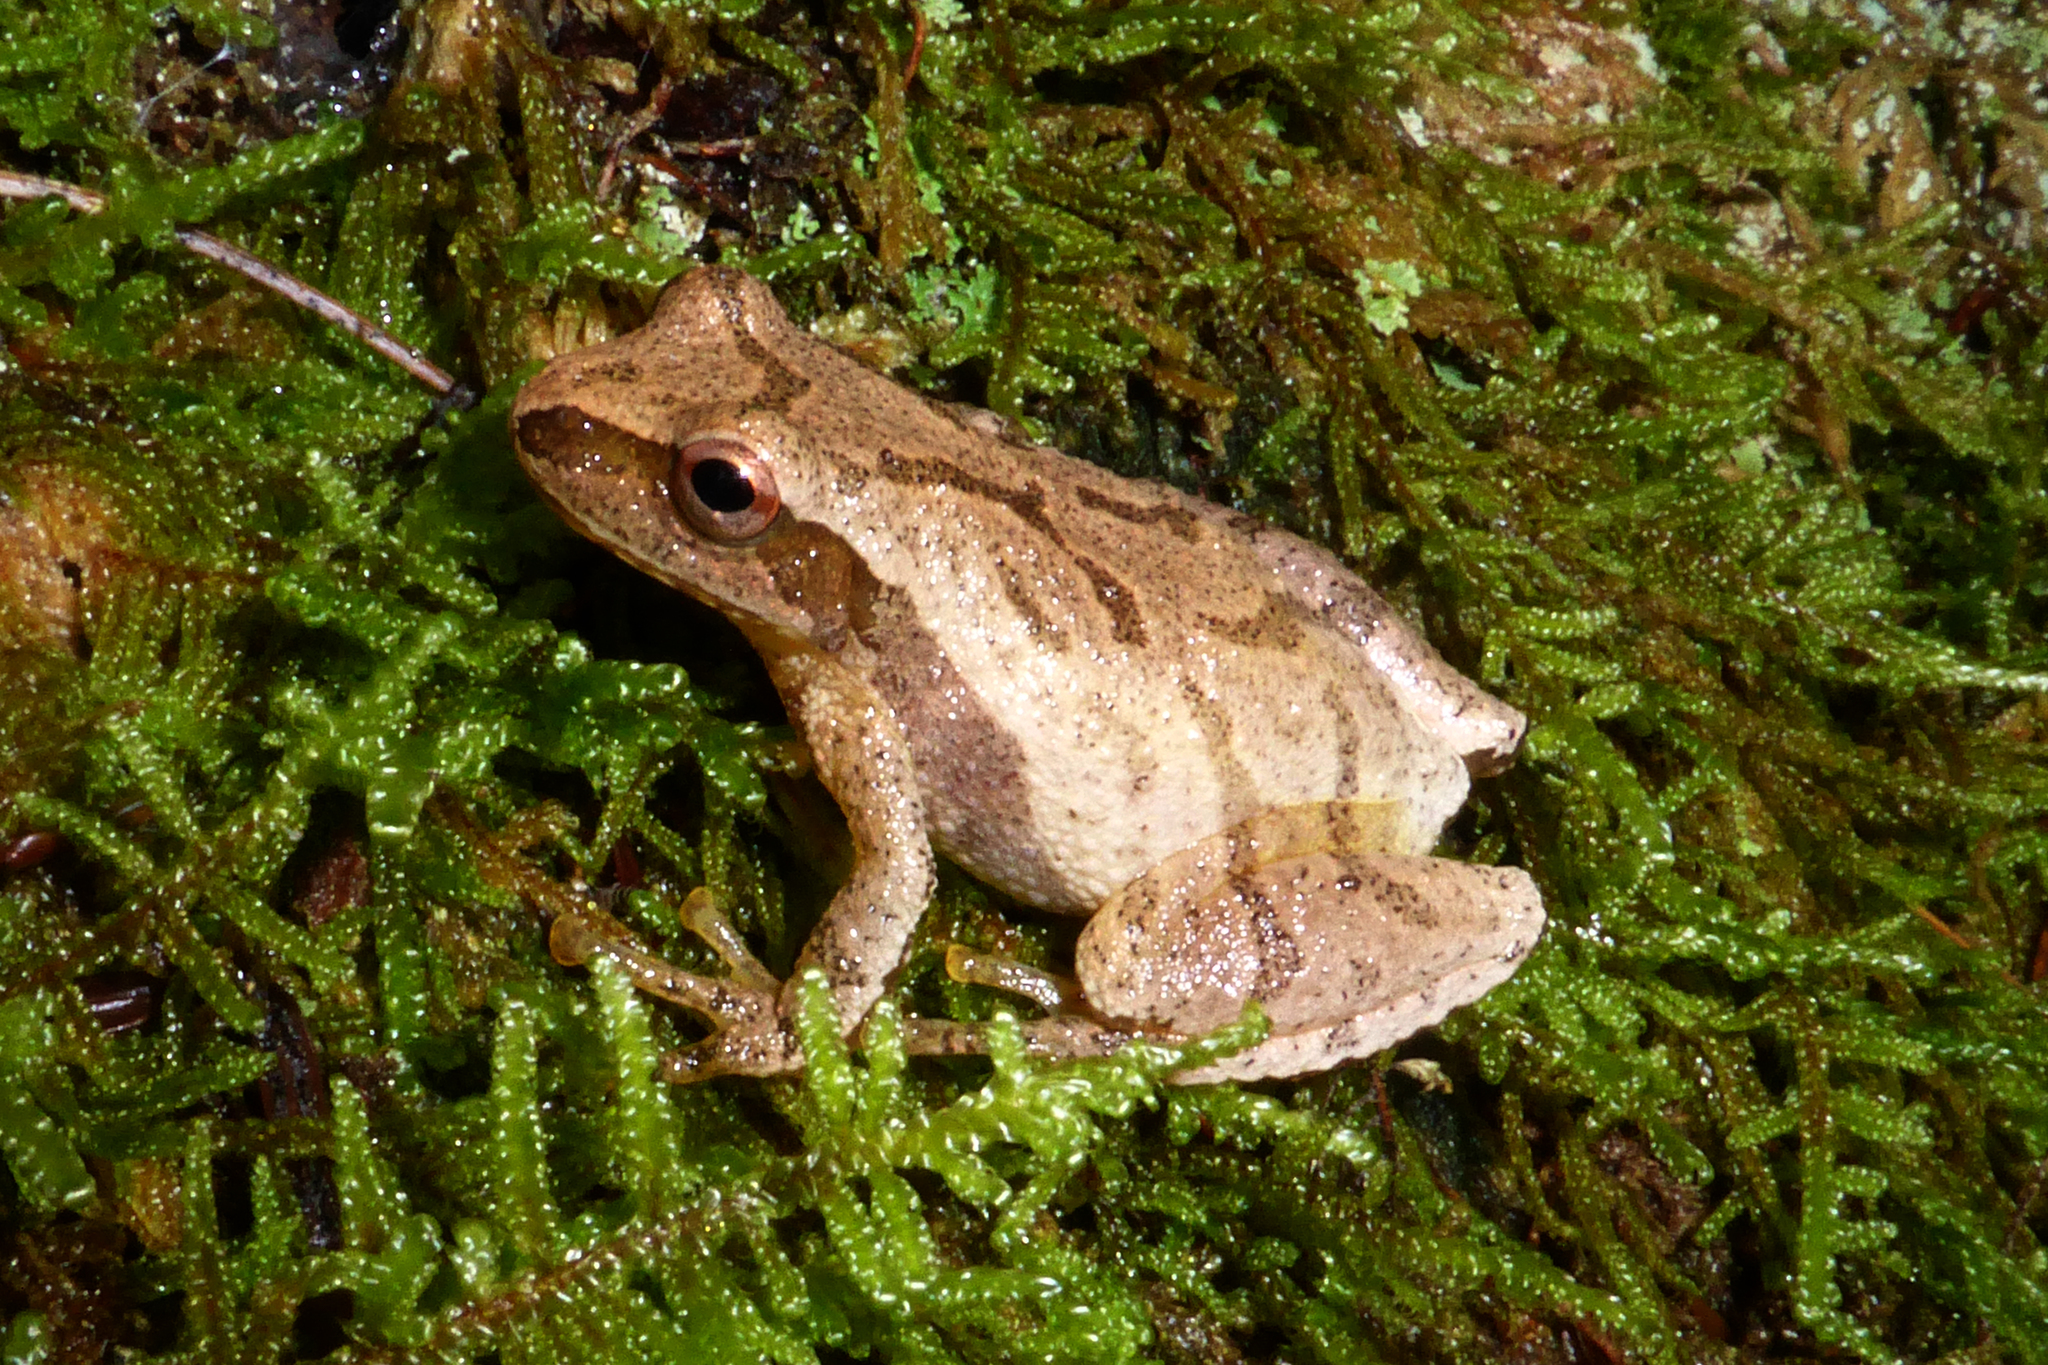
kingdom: Animalia
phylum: Chordata
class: Amphibia
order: Anura
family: Hylidae
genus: Pseudacris
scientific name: Pseudacris crucifer
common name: Spring peeper
